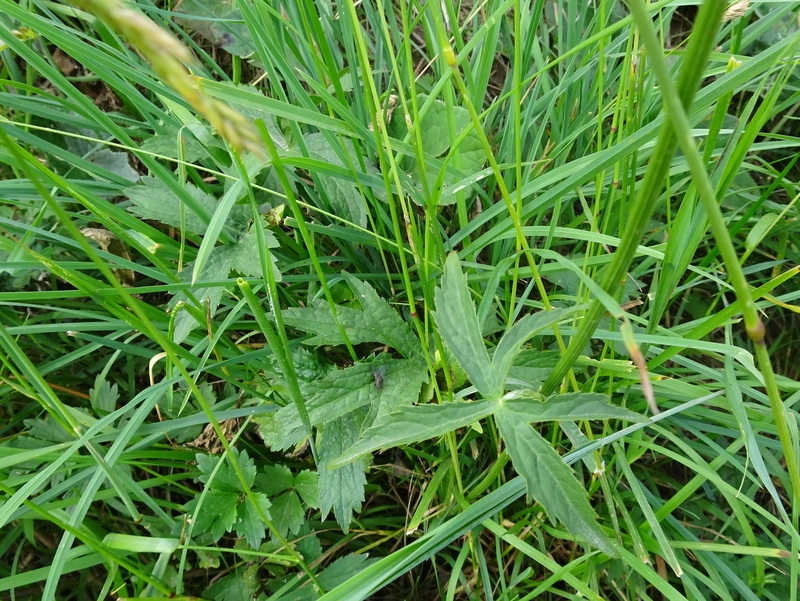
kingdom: Plantae
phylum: Tracheophyta
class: Magnoliopsida
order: Apiales
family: Apiaceae
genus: Astrantia
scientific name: Astrantia major
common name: Greater masterwort
